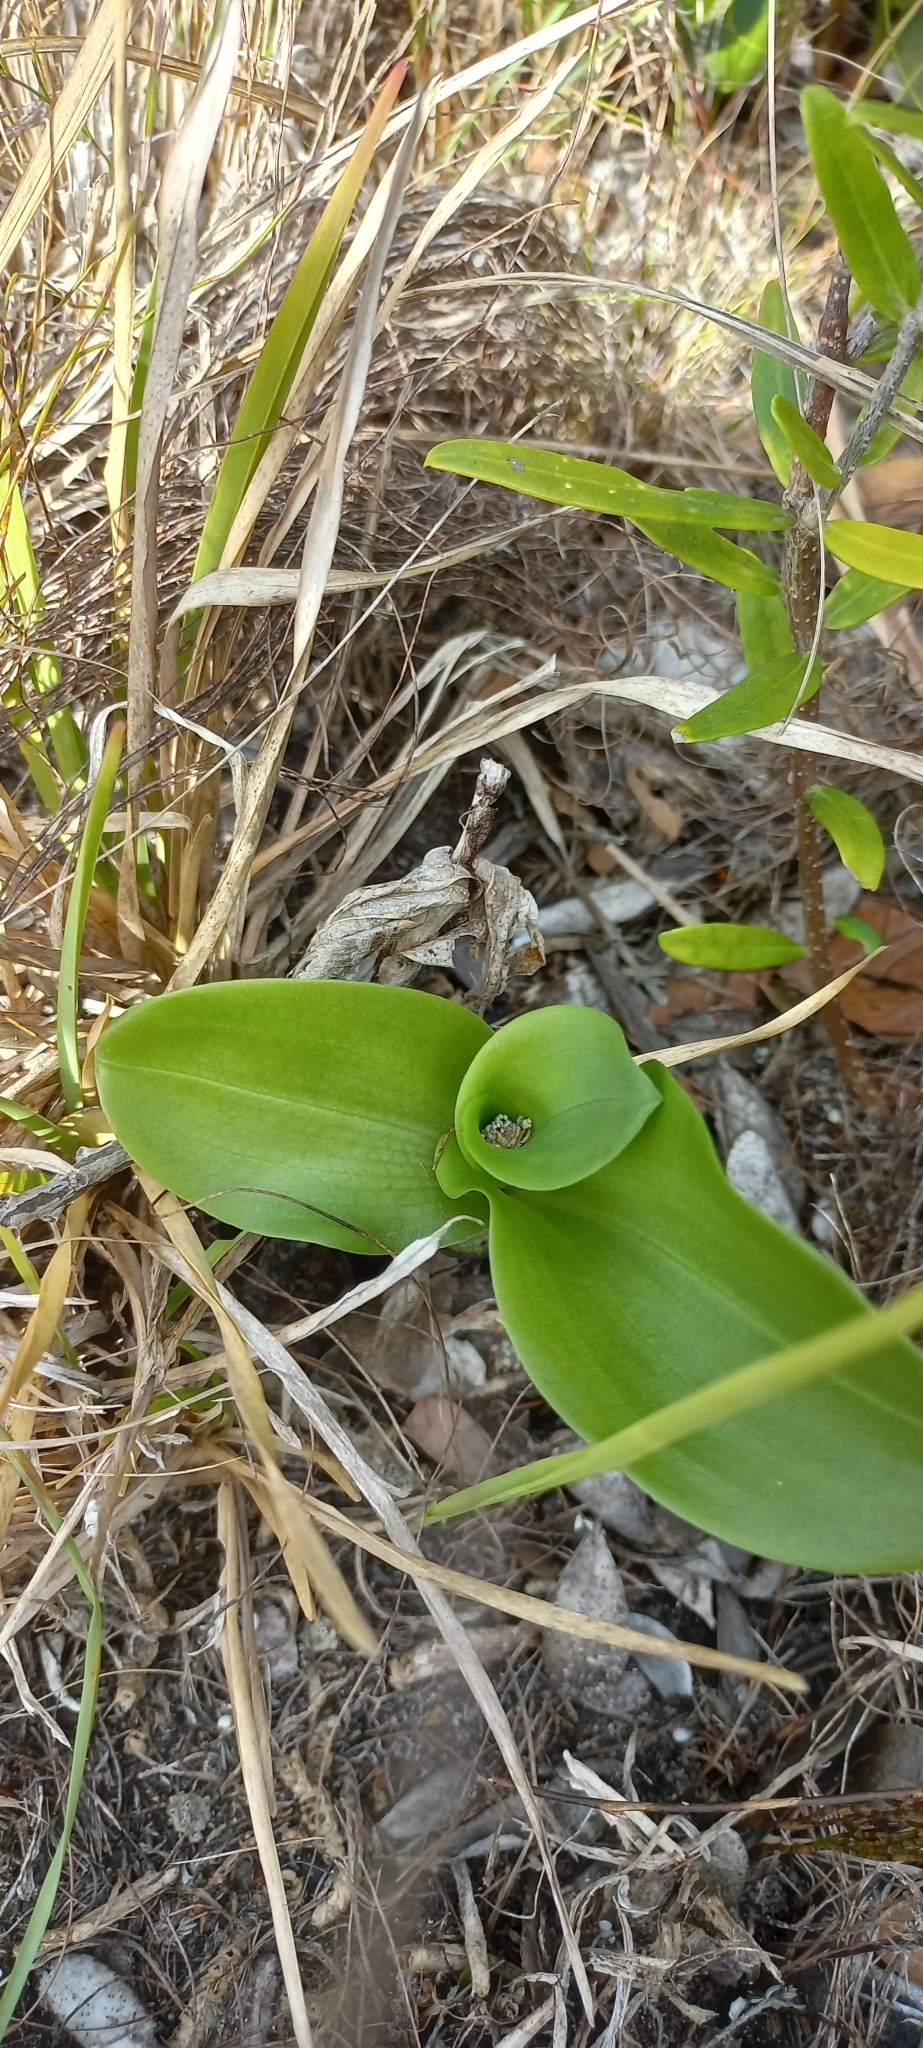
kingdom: Plantae
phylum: Tracheophyta
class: Liliopsida
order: Asparagales
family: Orchidaceae
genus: Bonatea
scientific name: Bonatea speciosa
